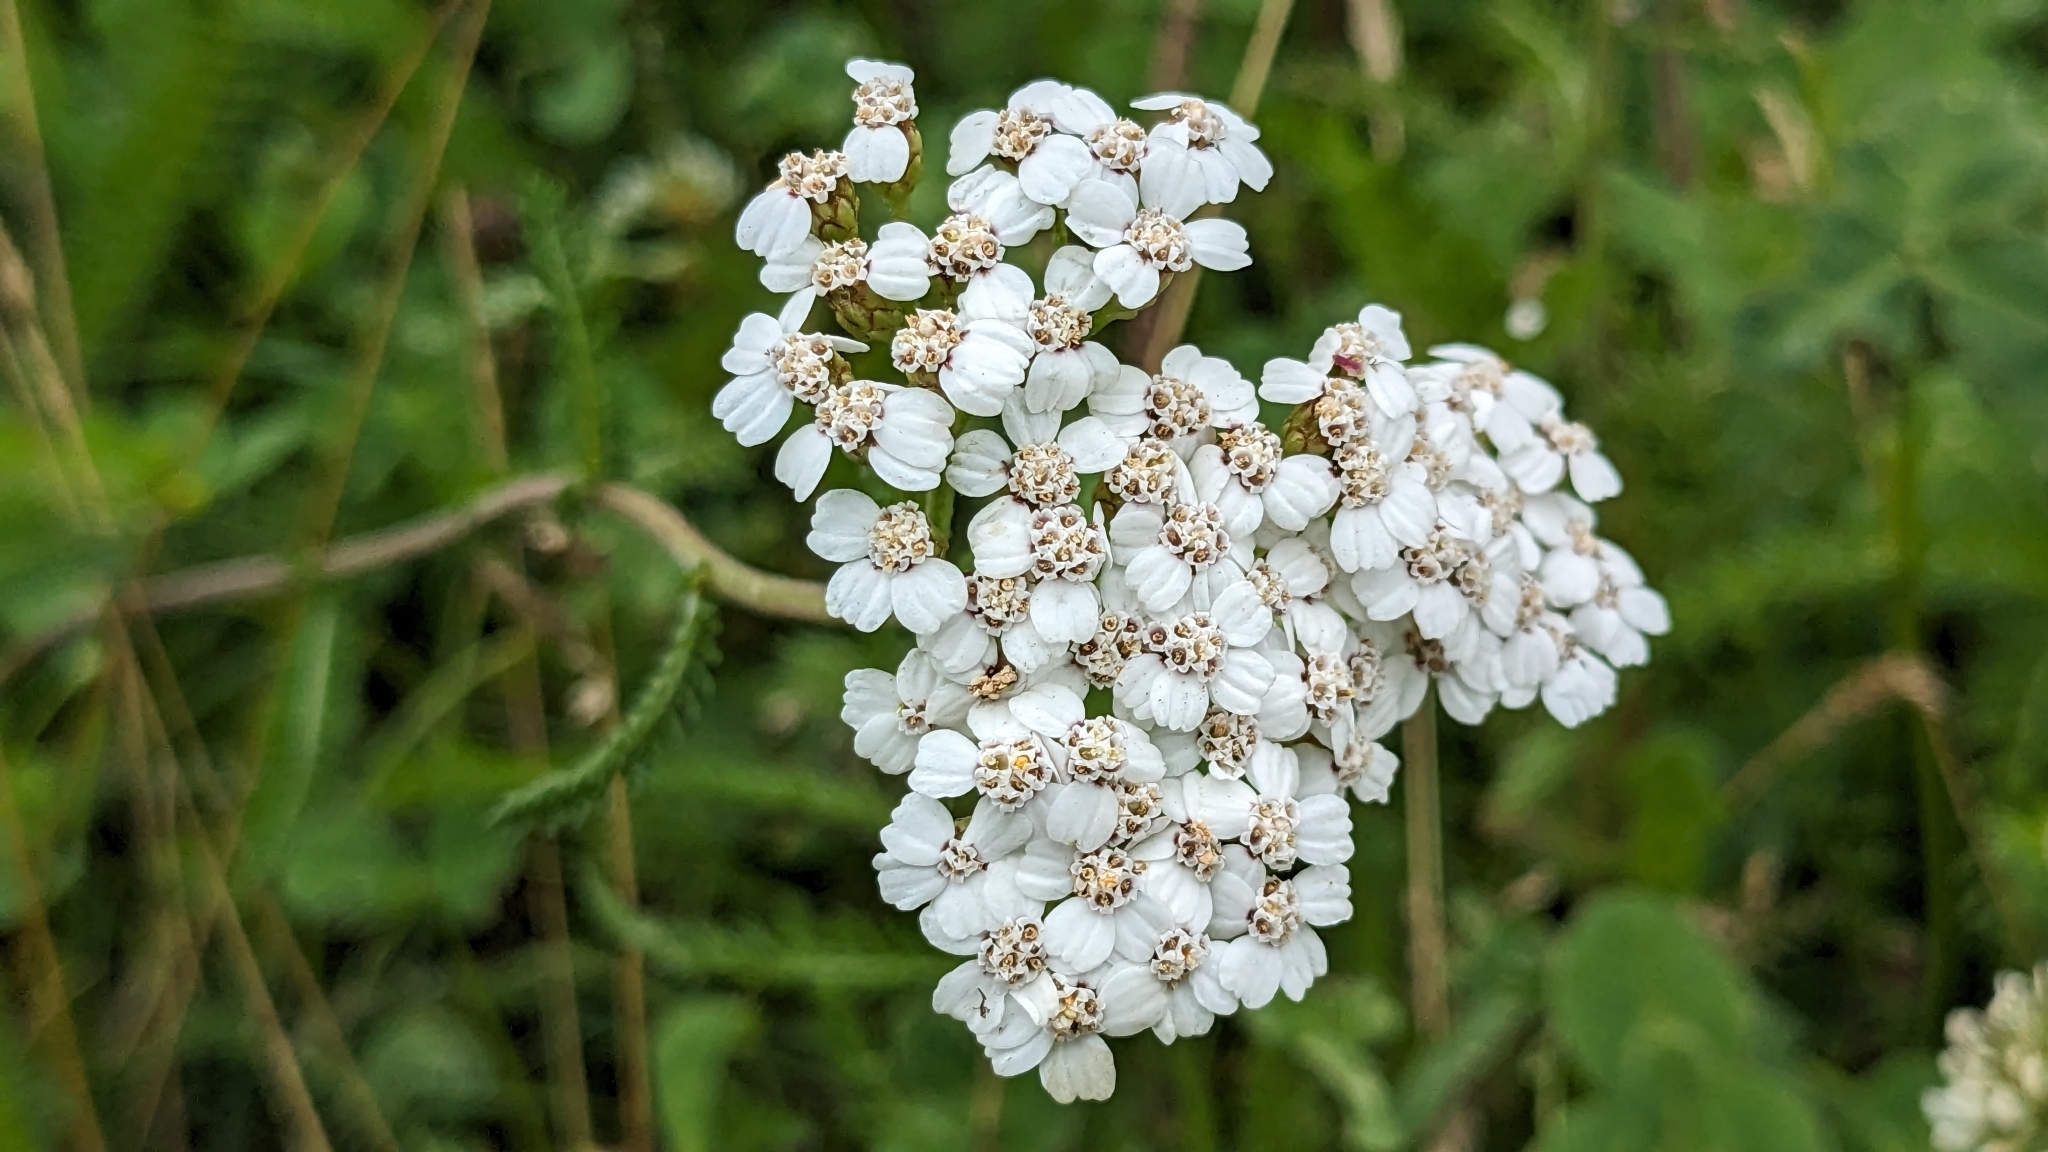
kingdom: Plantae
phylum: Tracheophyta
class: Magnoliopsida
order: Asterales
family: Asteraceae
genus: Achillea
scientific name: Achillea millefolium
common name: Yarrow
